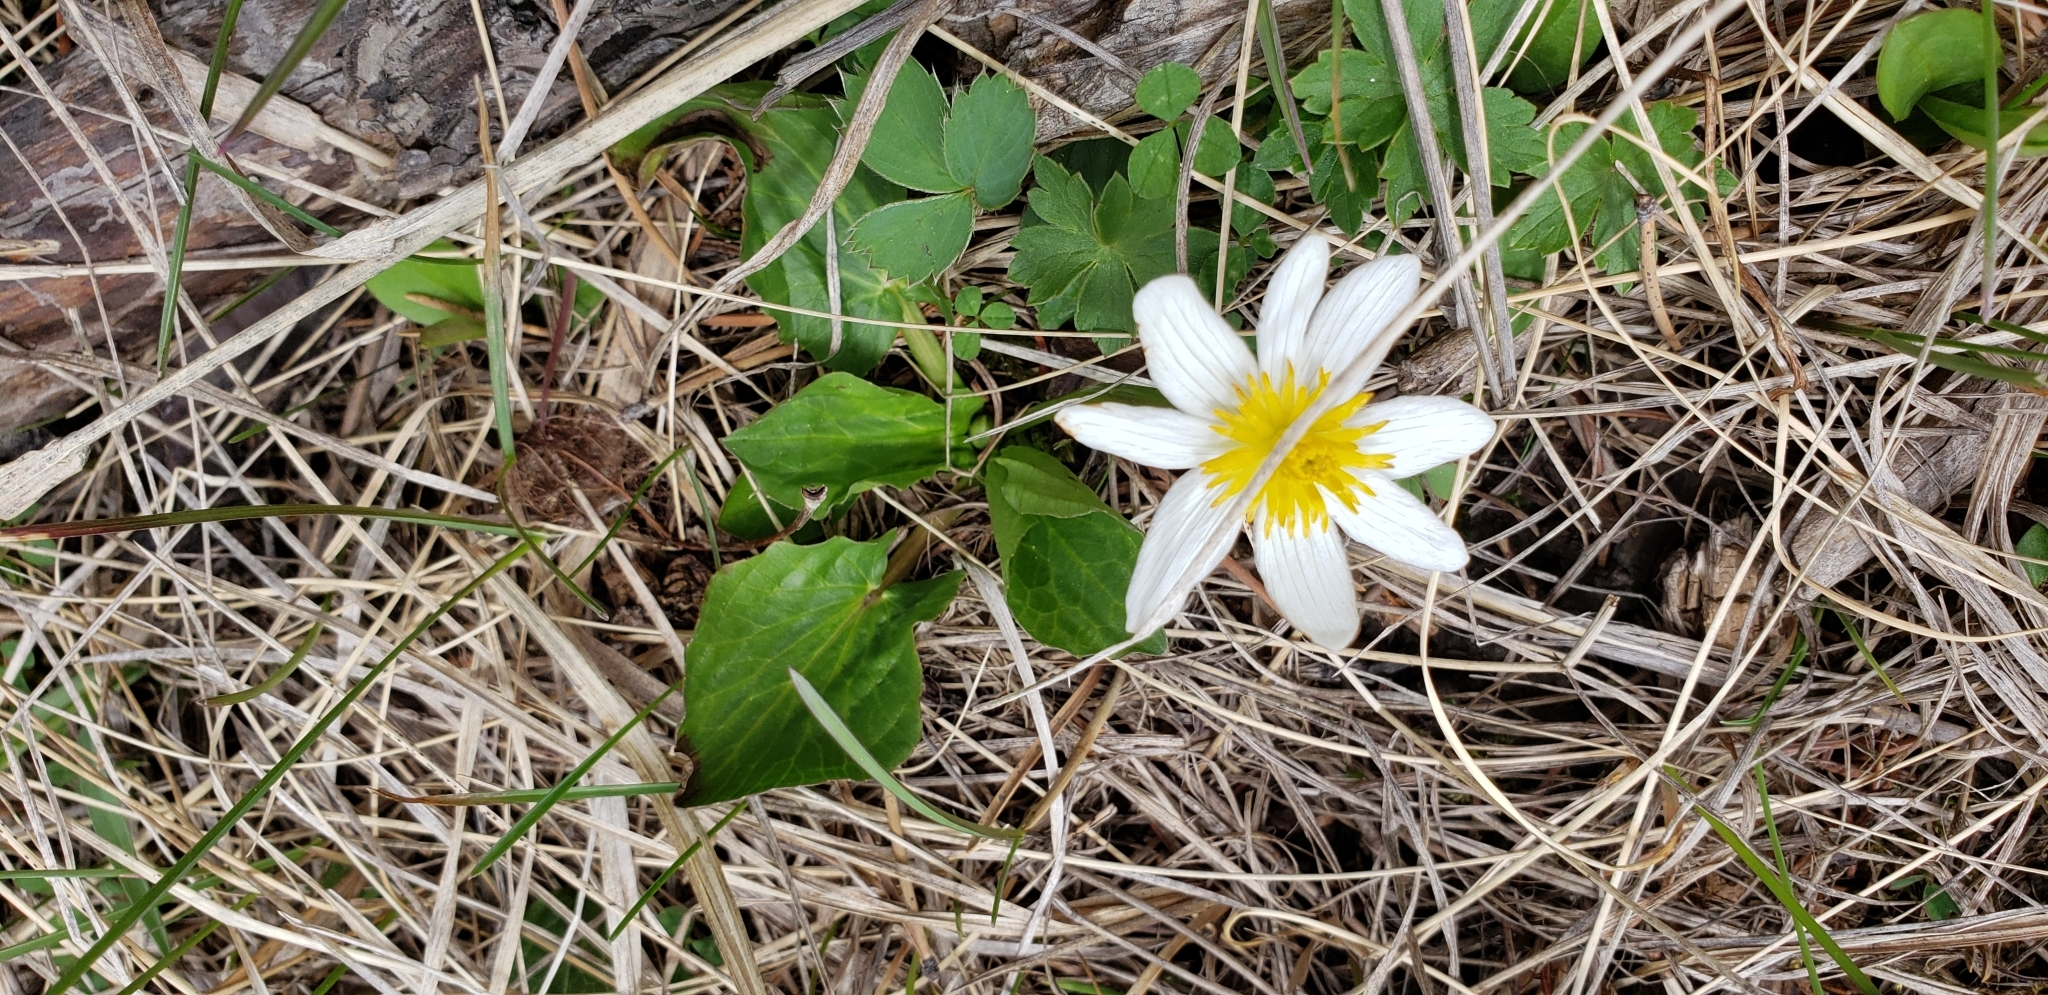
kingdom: Plantae
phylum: Tracheophyta
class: Magnoliopsida
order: Ranunculales
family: Ranunculaceae
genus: Caltha
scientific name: Caltha leptosepala
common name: Elkslip
